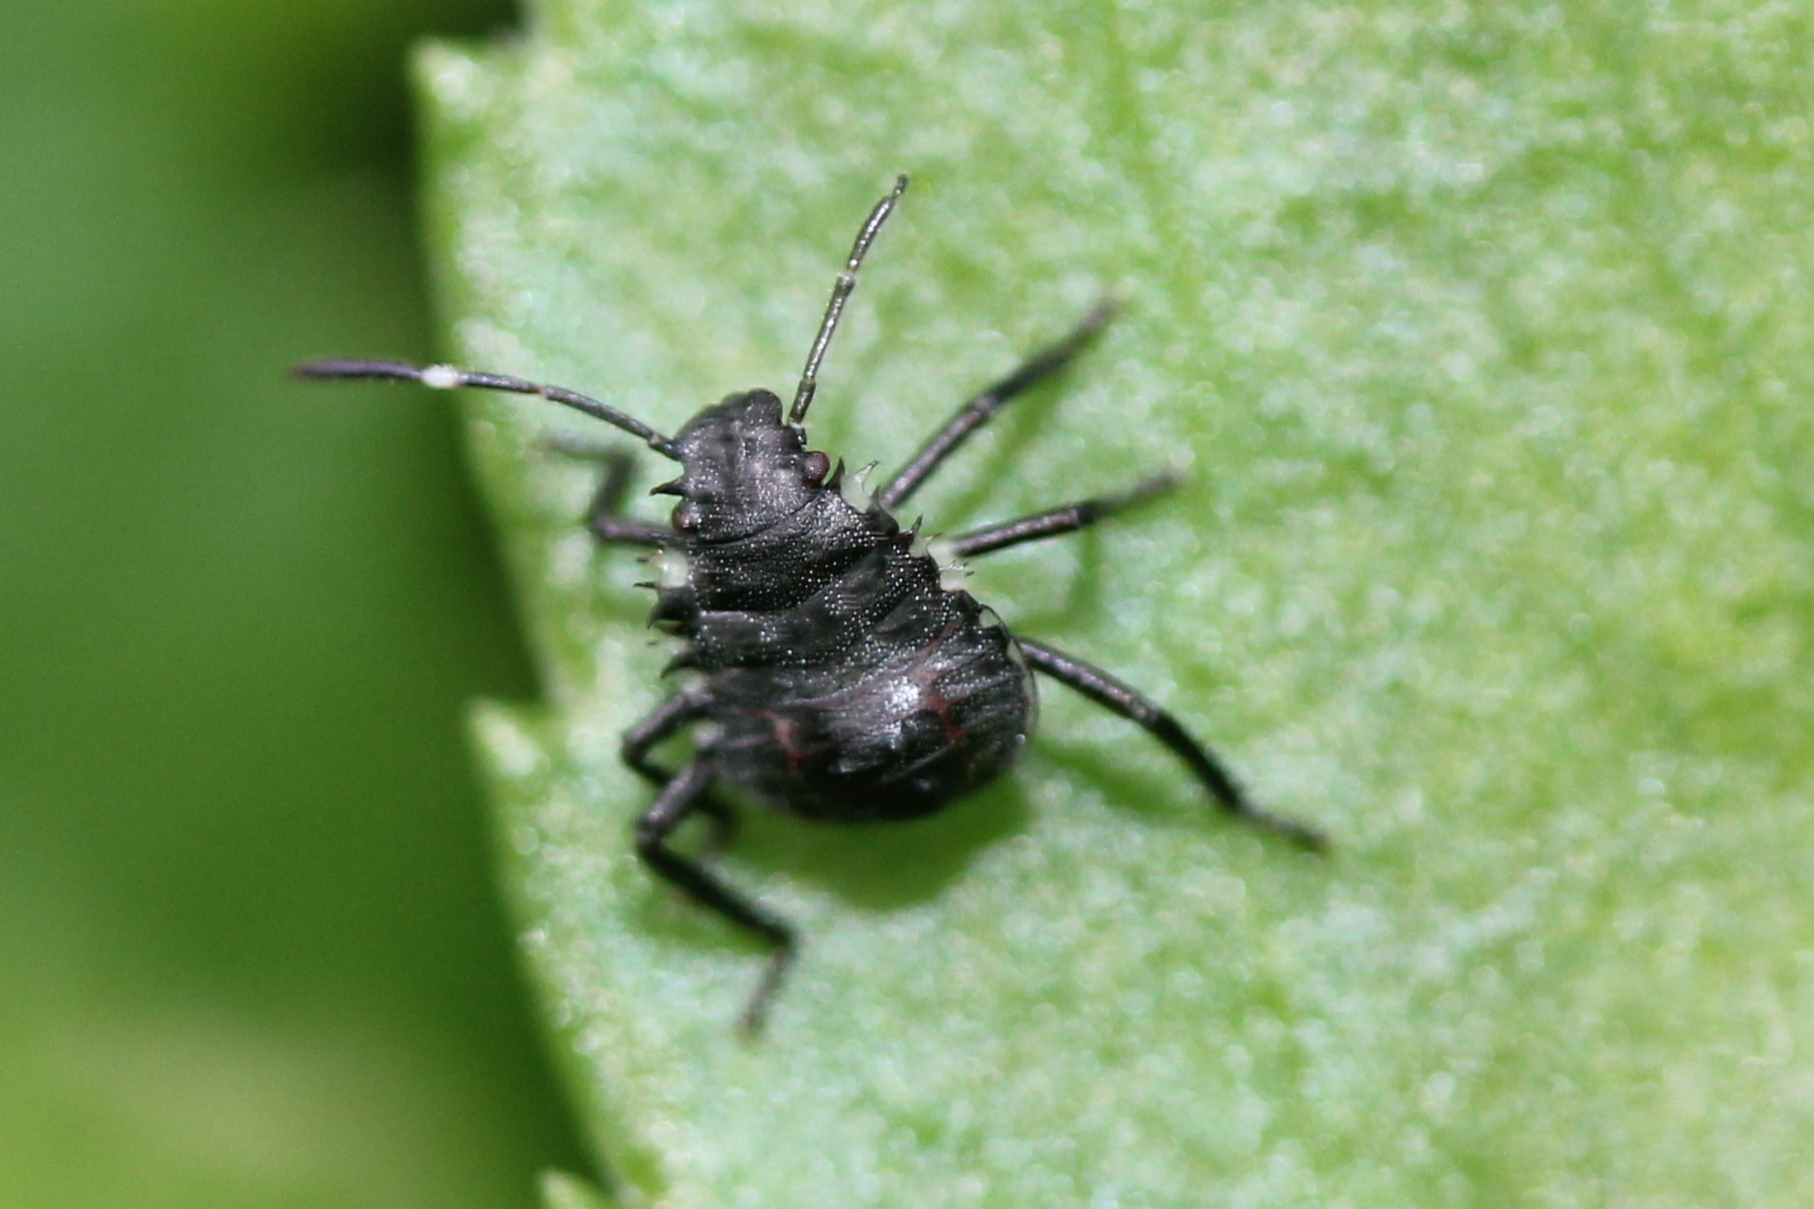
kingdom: Animalia
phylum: Arthropoda
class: Insecta
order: Hemiptera
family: Pentatomidae
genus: Halyomorpha
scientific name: Halyomorpha halys
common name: Brown marmorated stink bug
